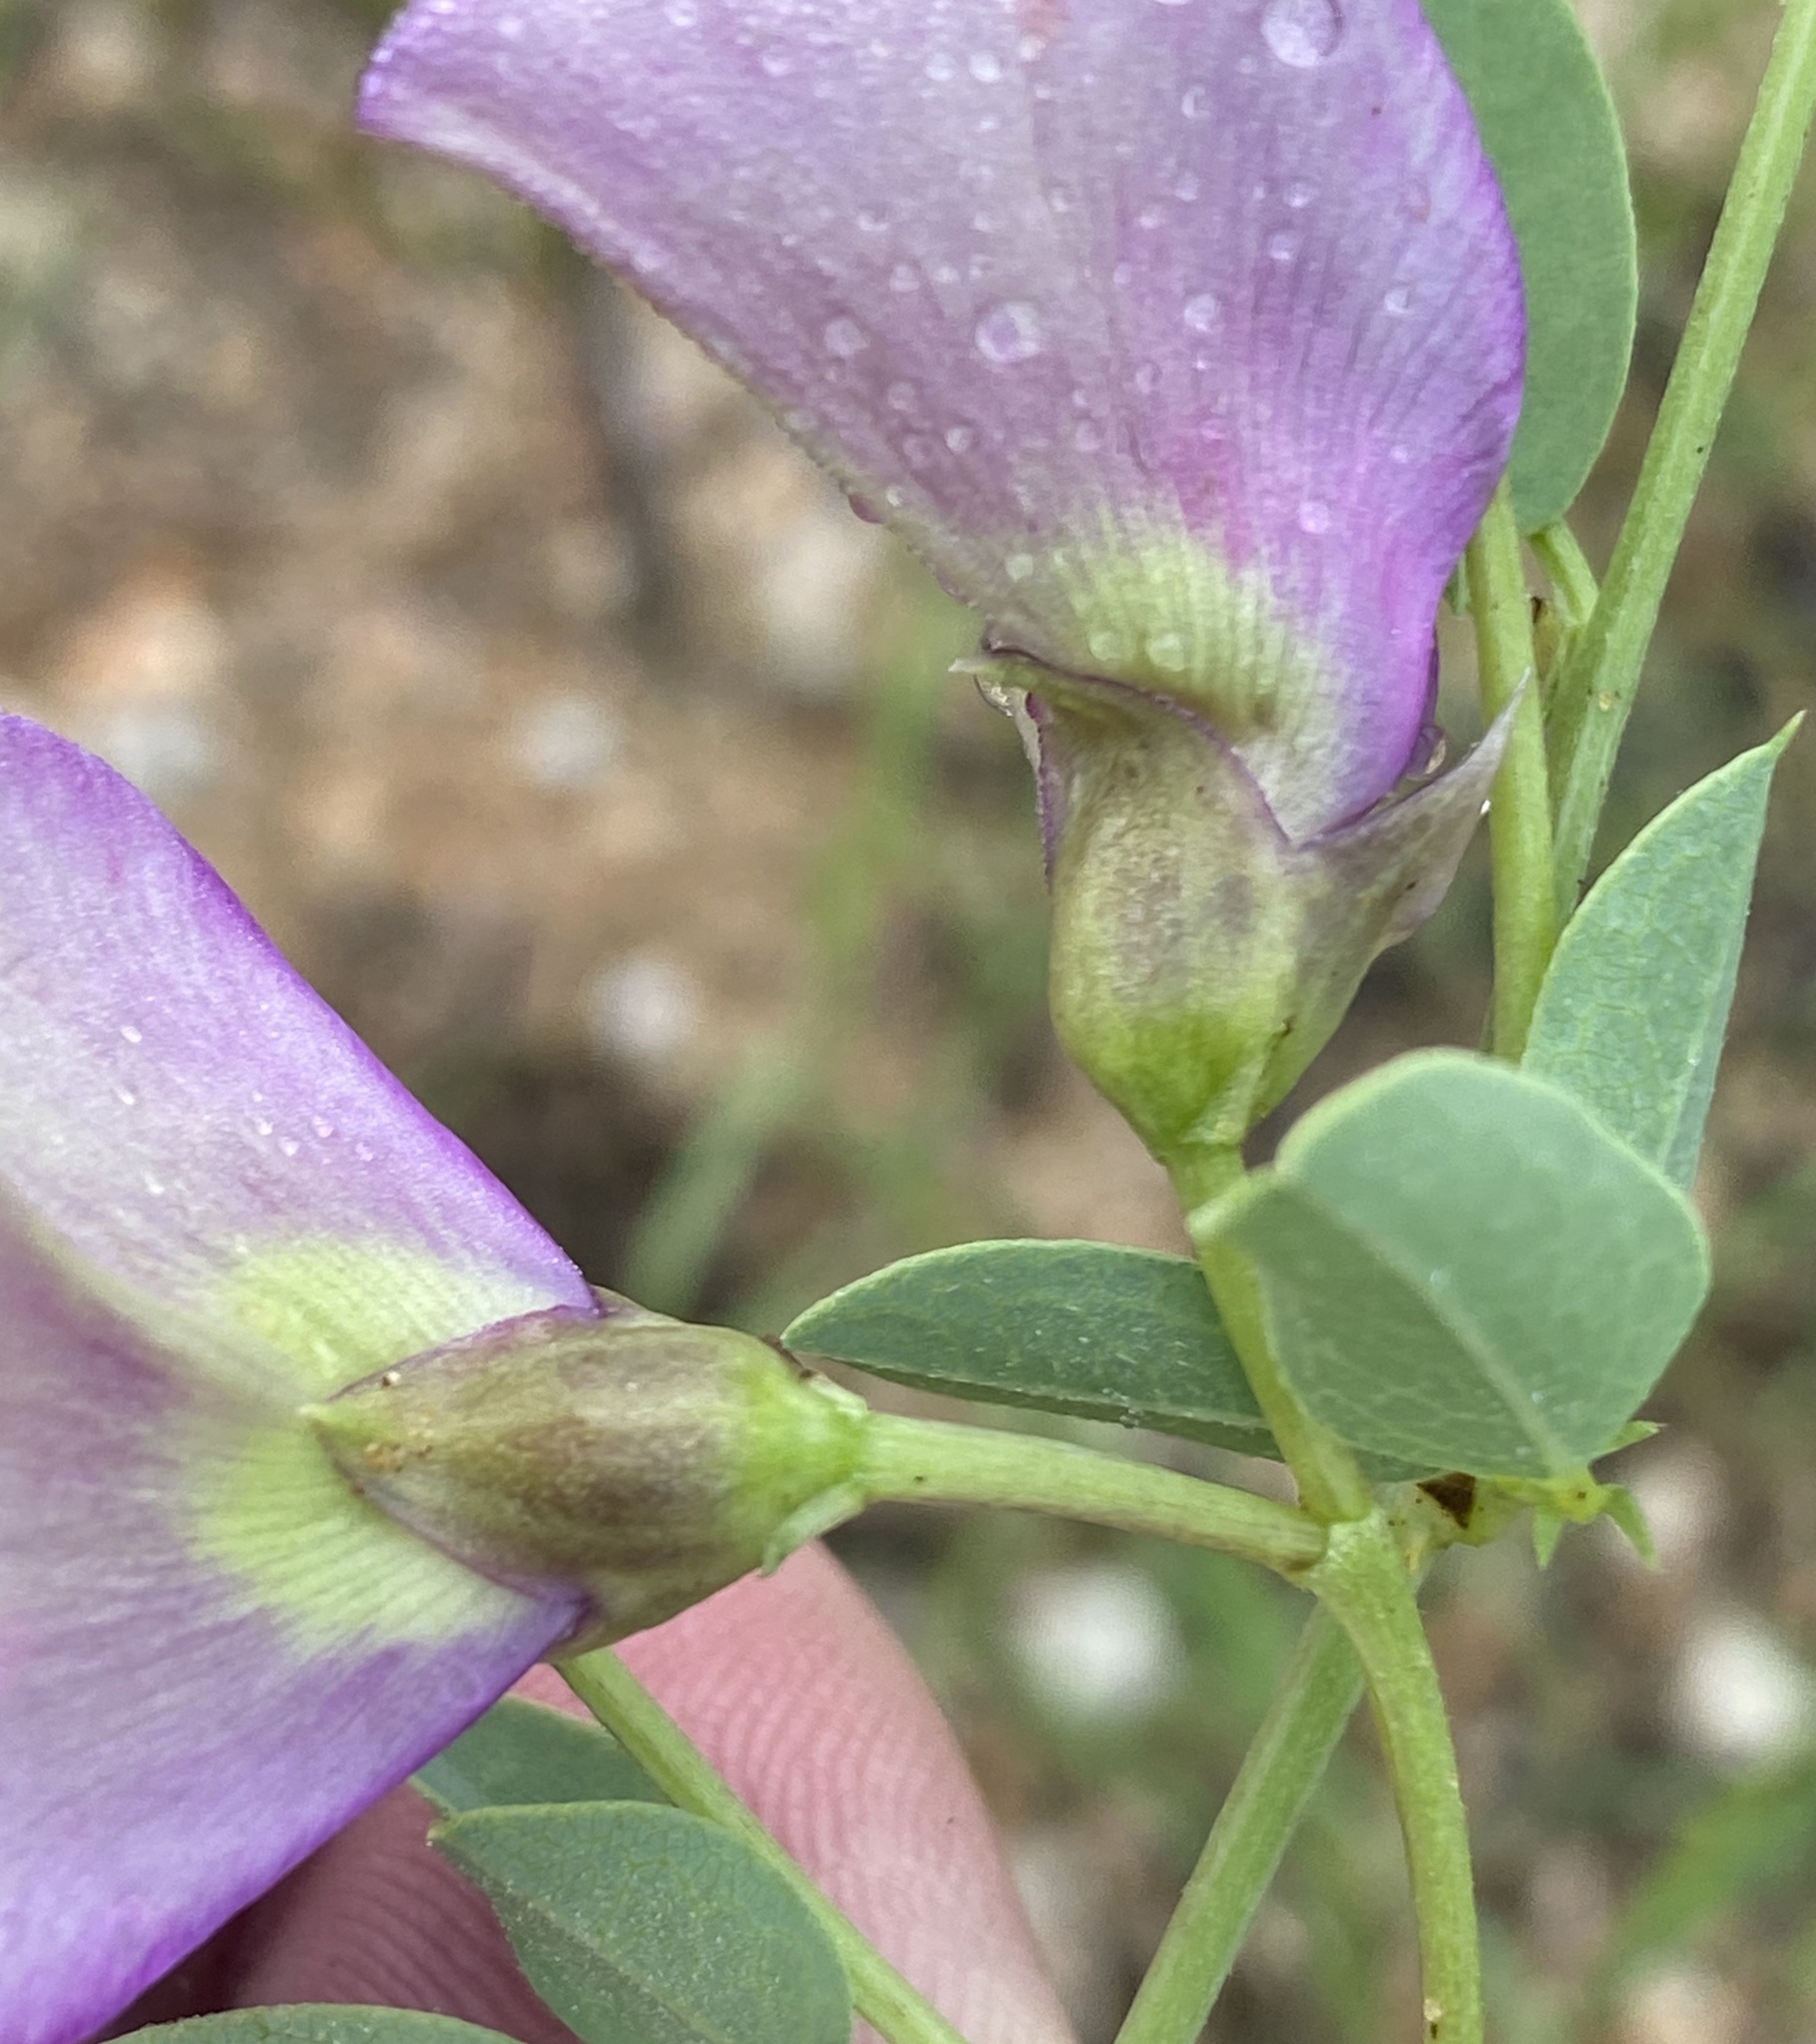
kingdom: Plantae
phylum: Tracheophyta
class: Magnoliopsida
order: Fabales
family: Fabaceae
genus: Otoptera
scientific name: Otoptera burchellii
